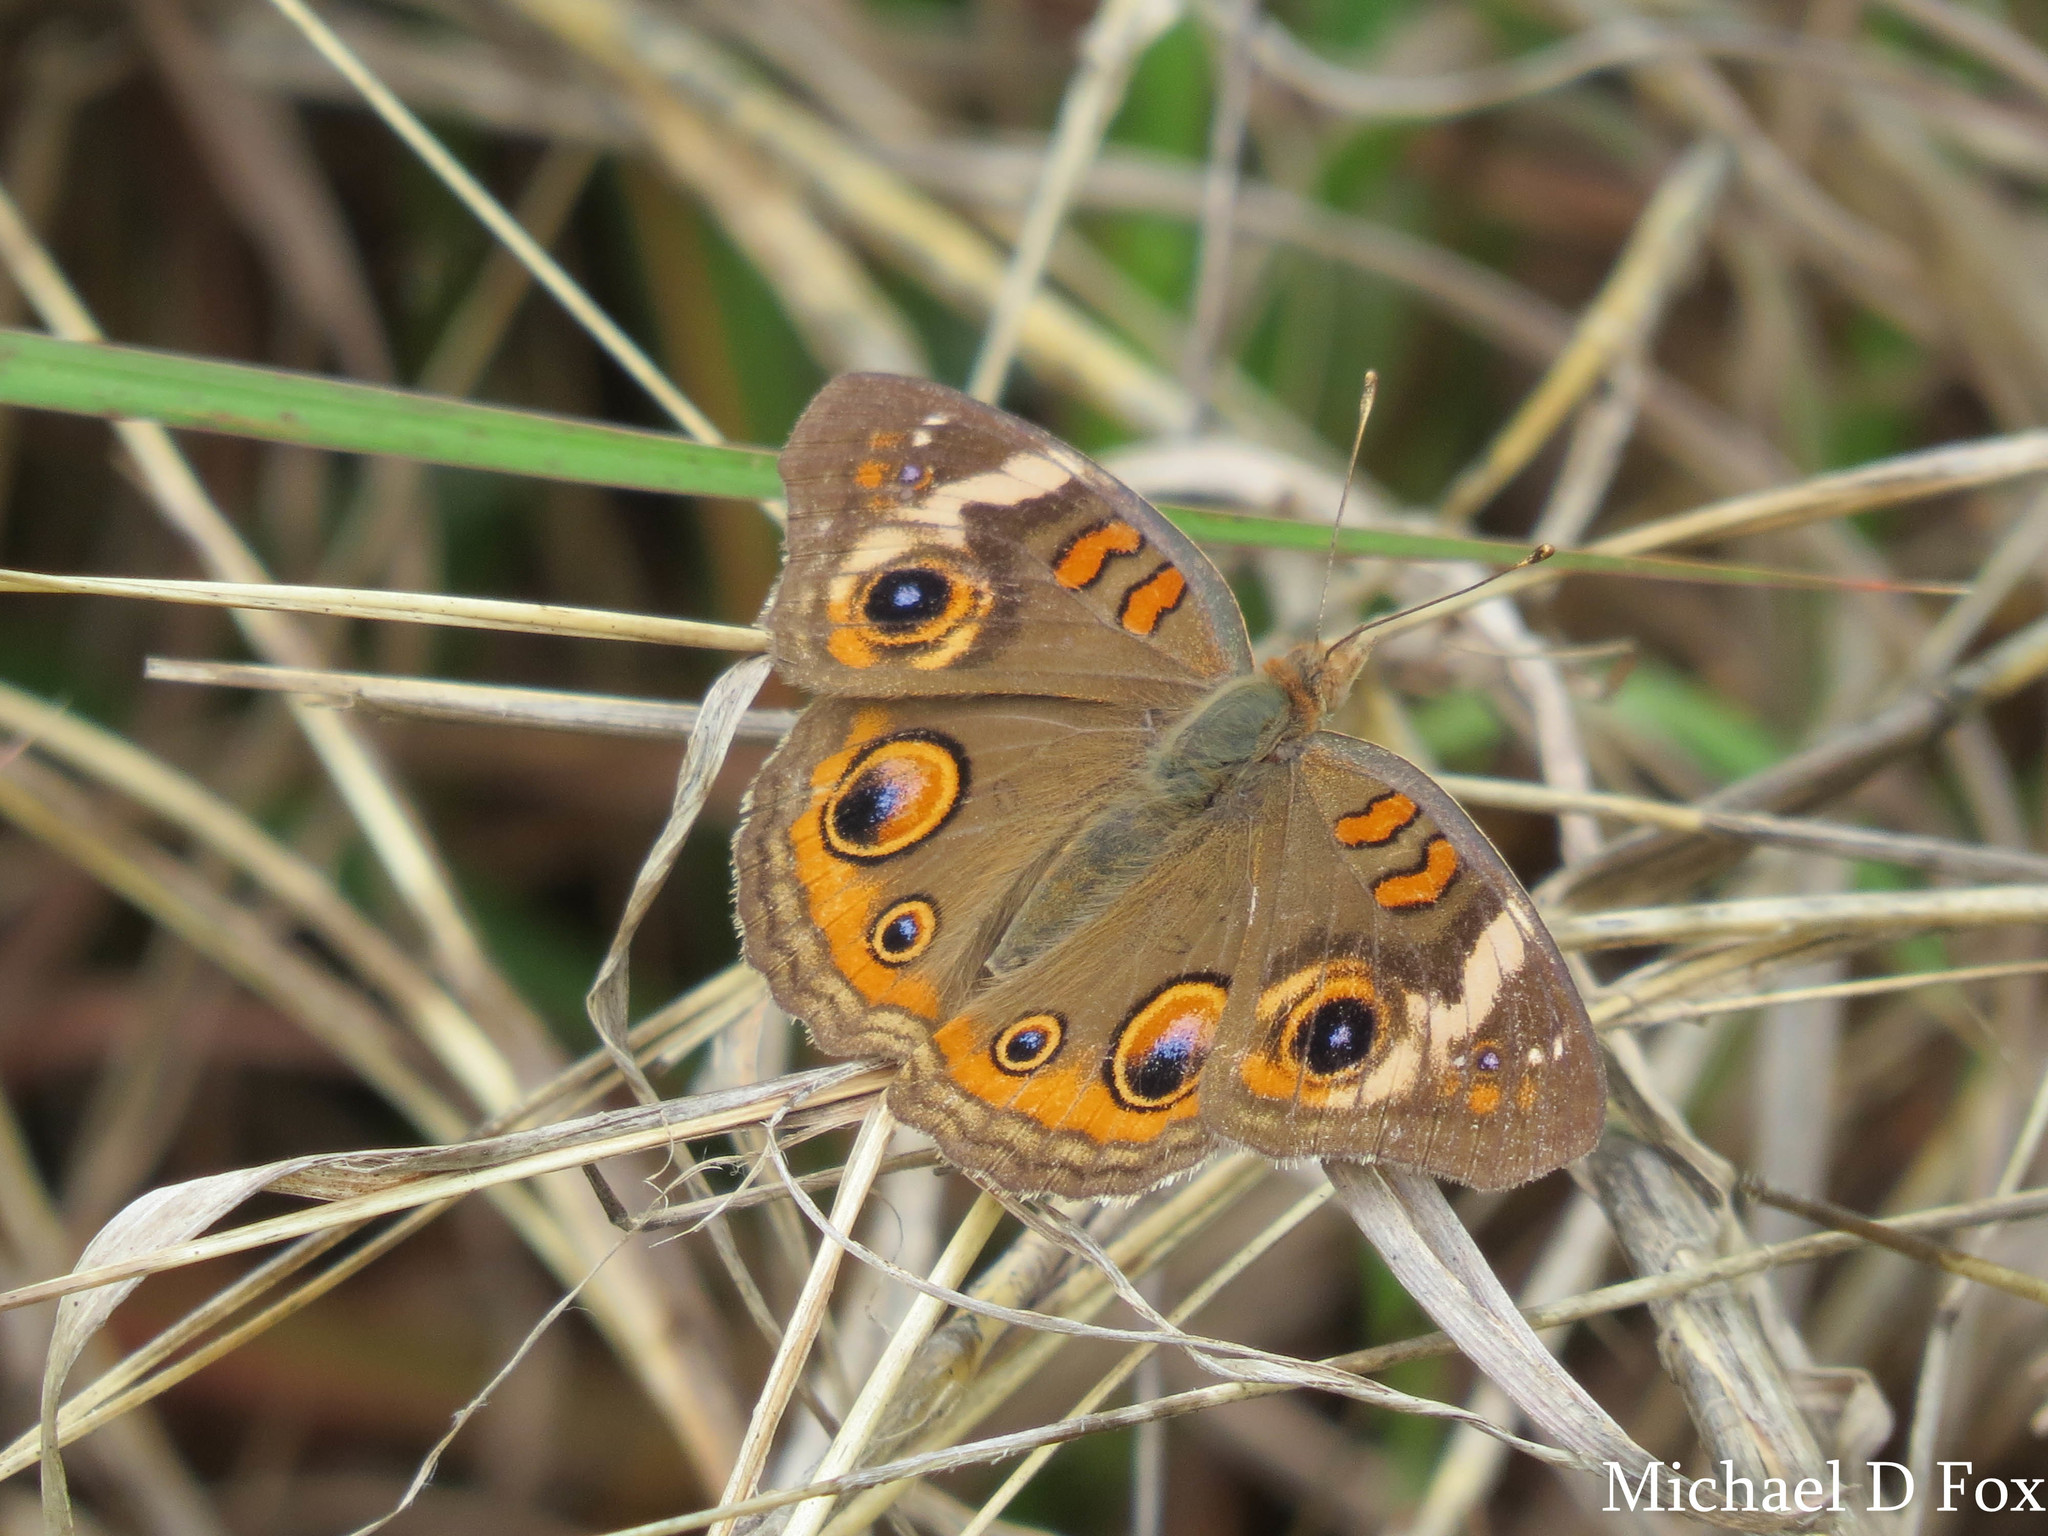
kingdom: Animalia
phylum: Arthropoda
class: Insecta
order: Lepidoptera
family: Nymphalidae
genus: Junonia
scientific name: Junonia coenia
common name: Common buckeye
